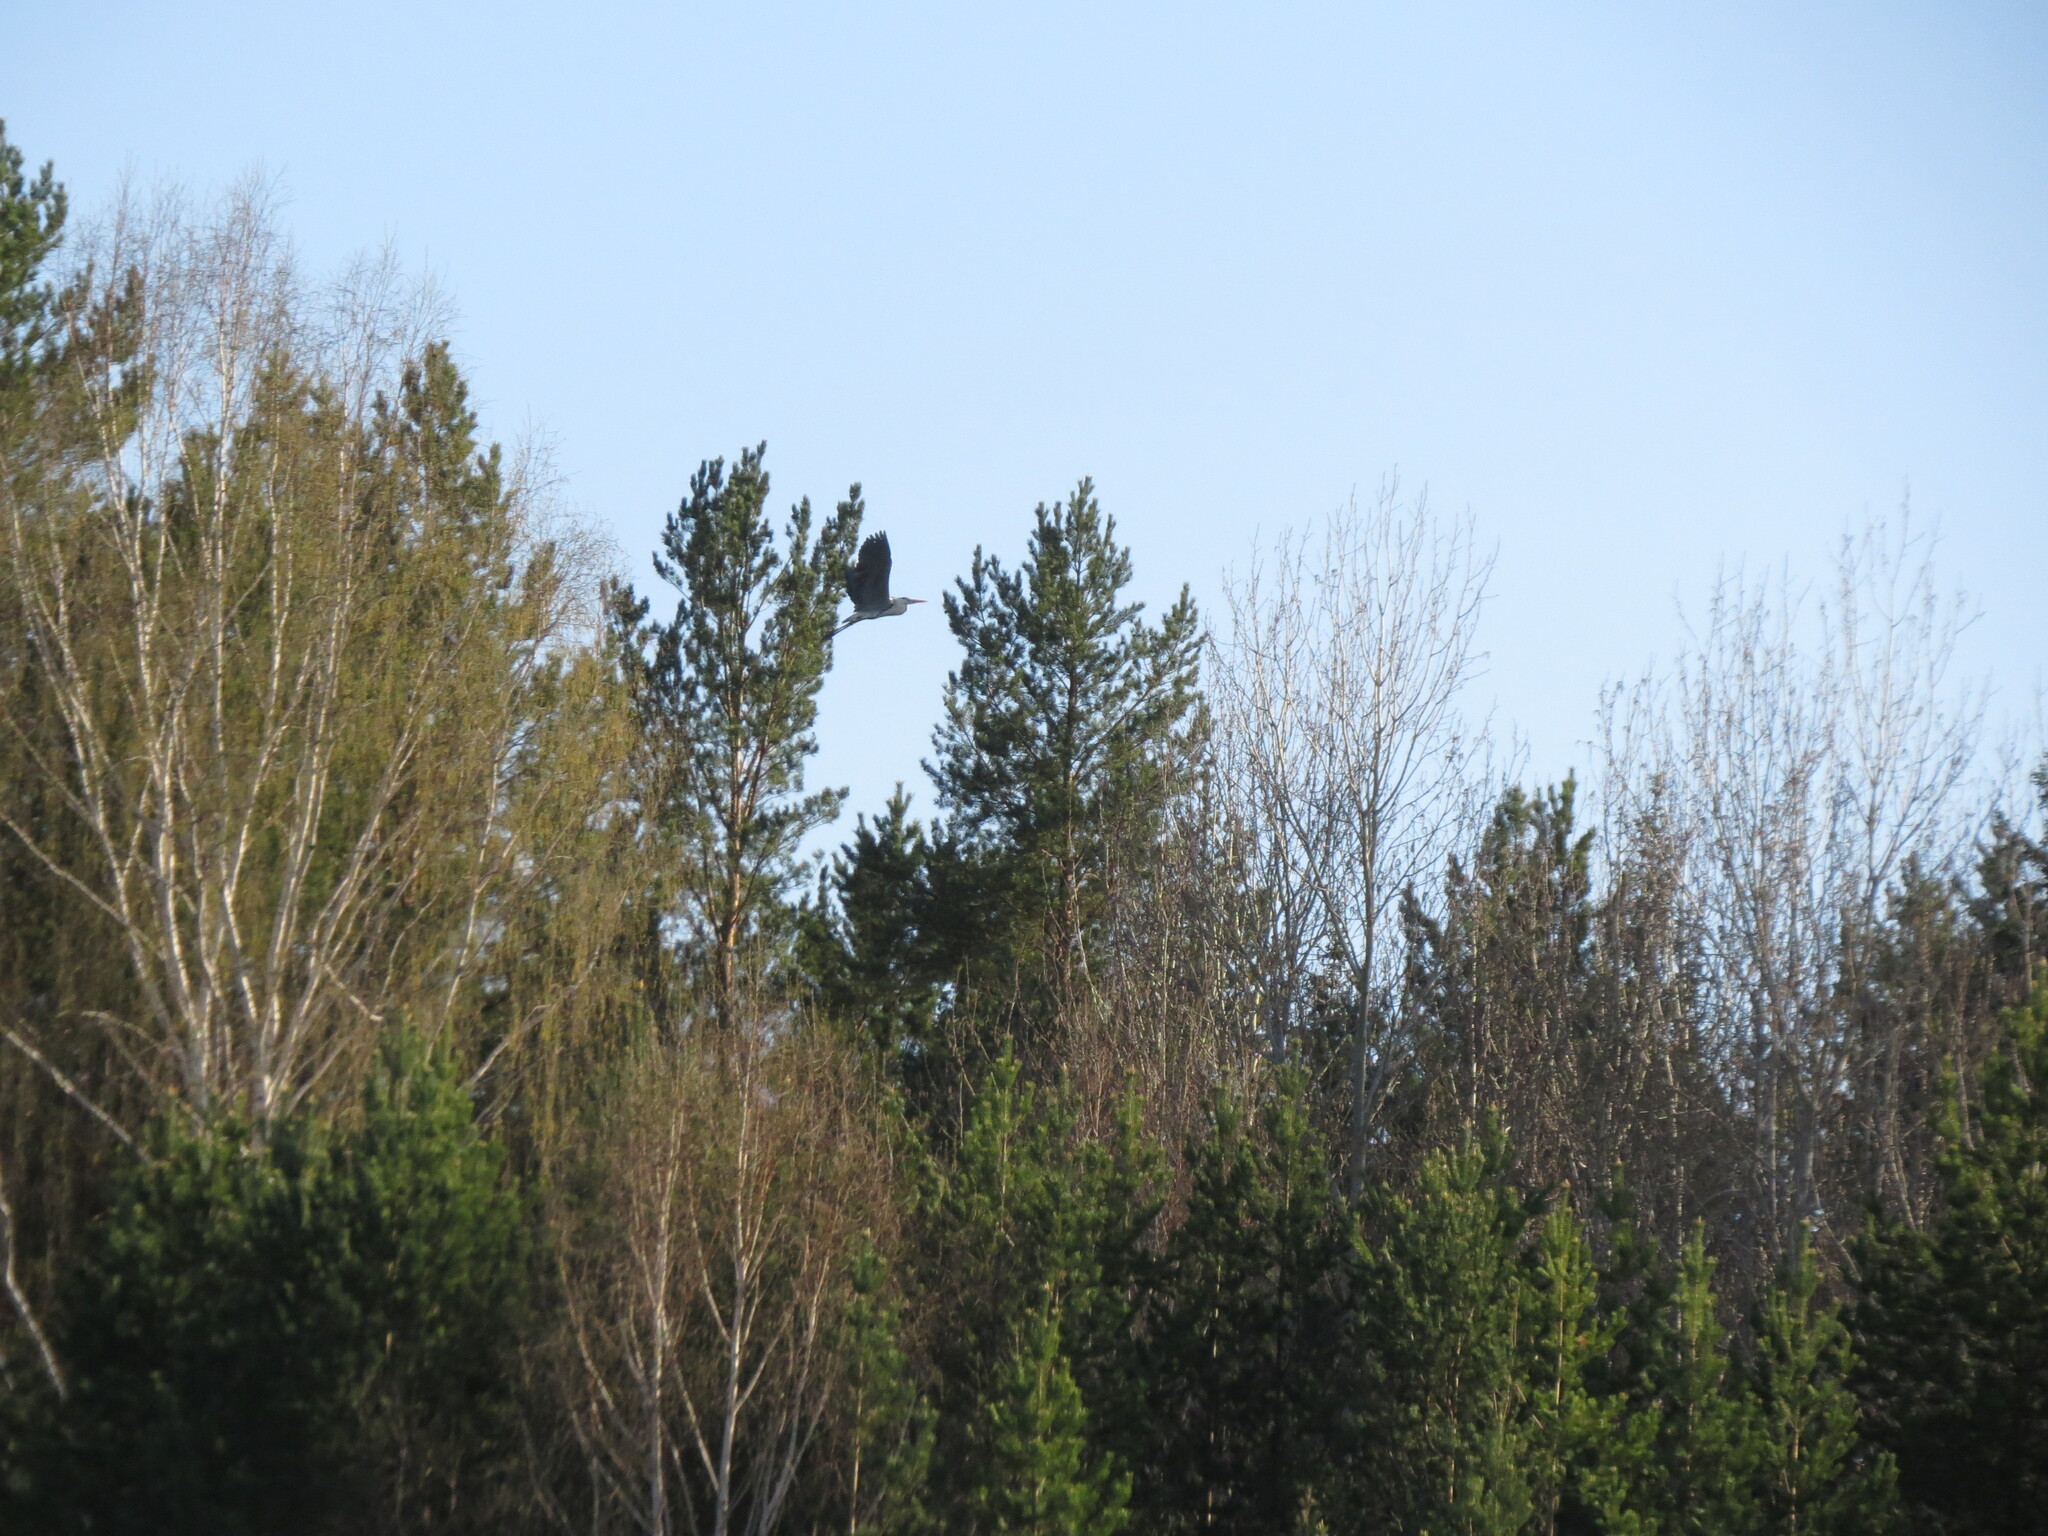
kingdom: Animalia
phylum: Chordata
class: Aves
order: Pelecaniformes
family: Ardeidae
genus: Ardea
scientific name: Ardea cinerea
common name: Grey heron
